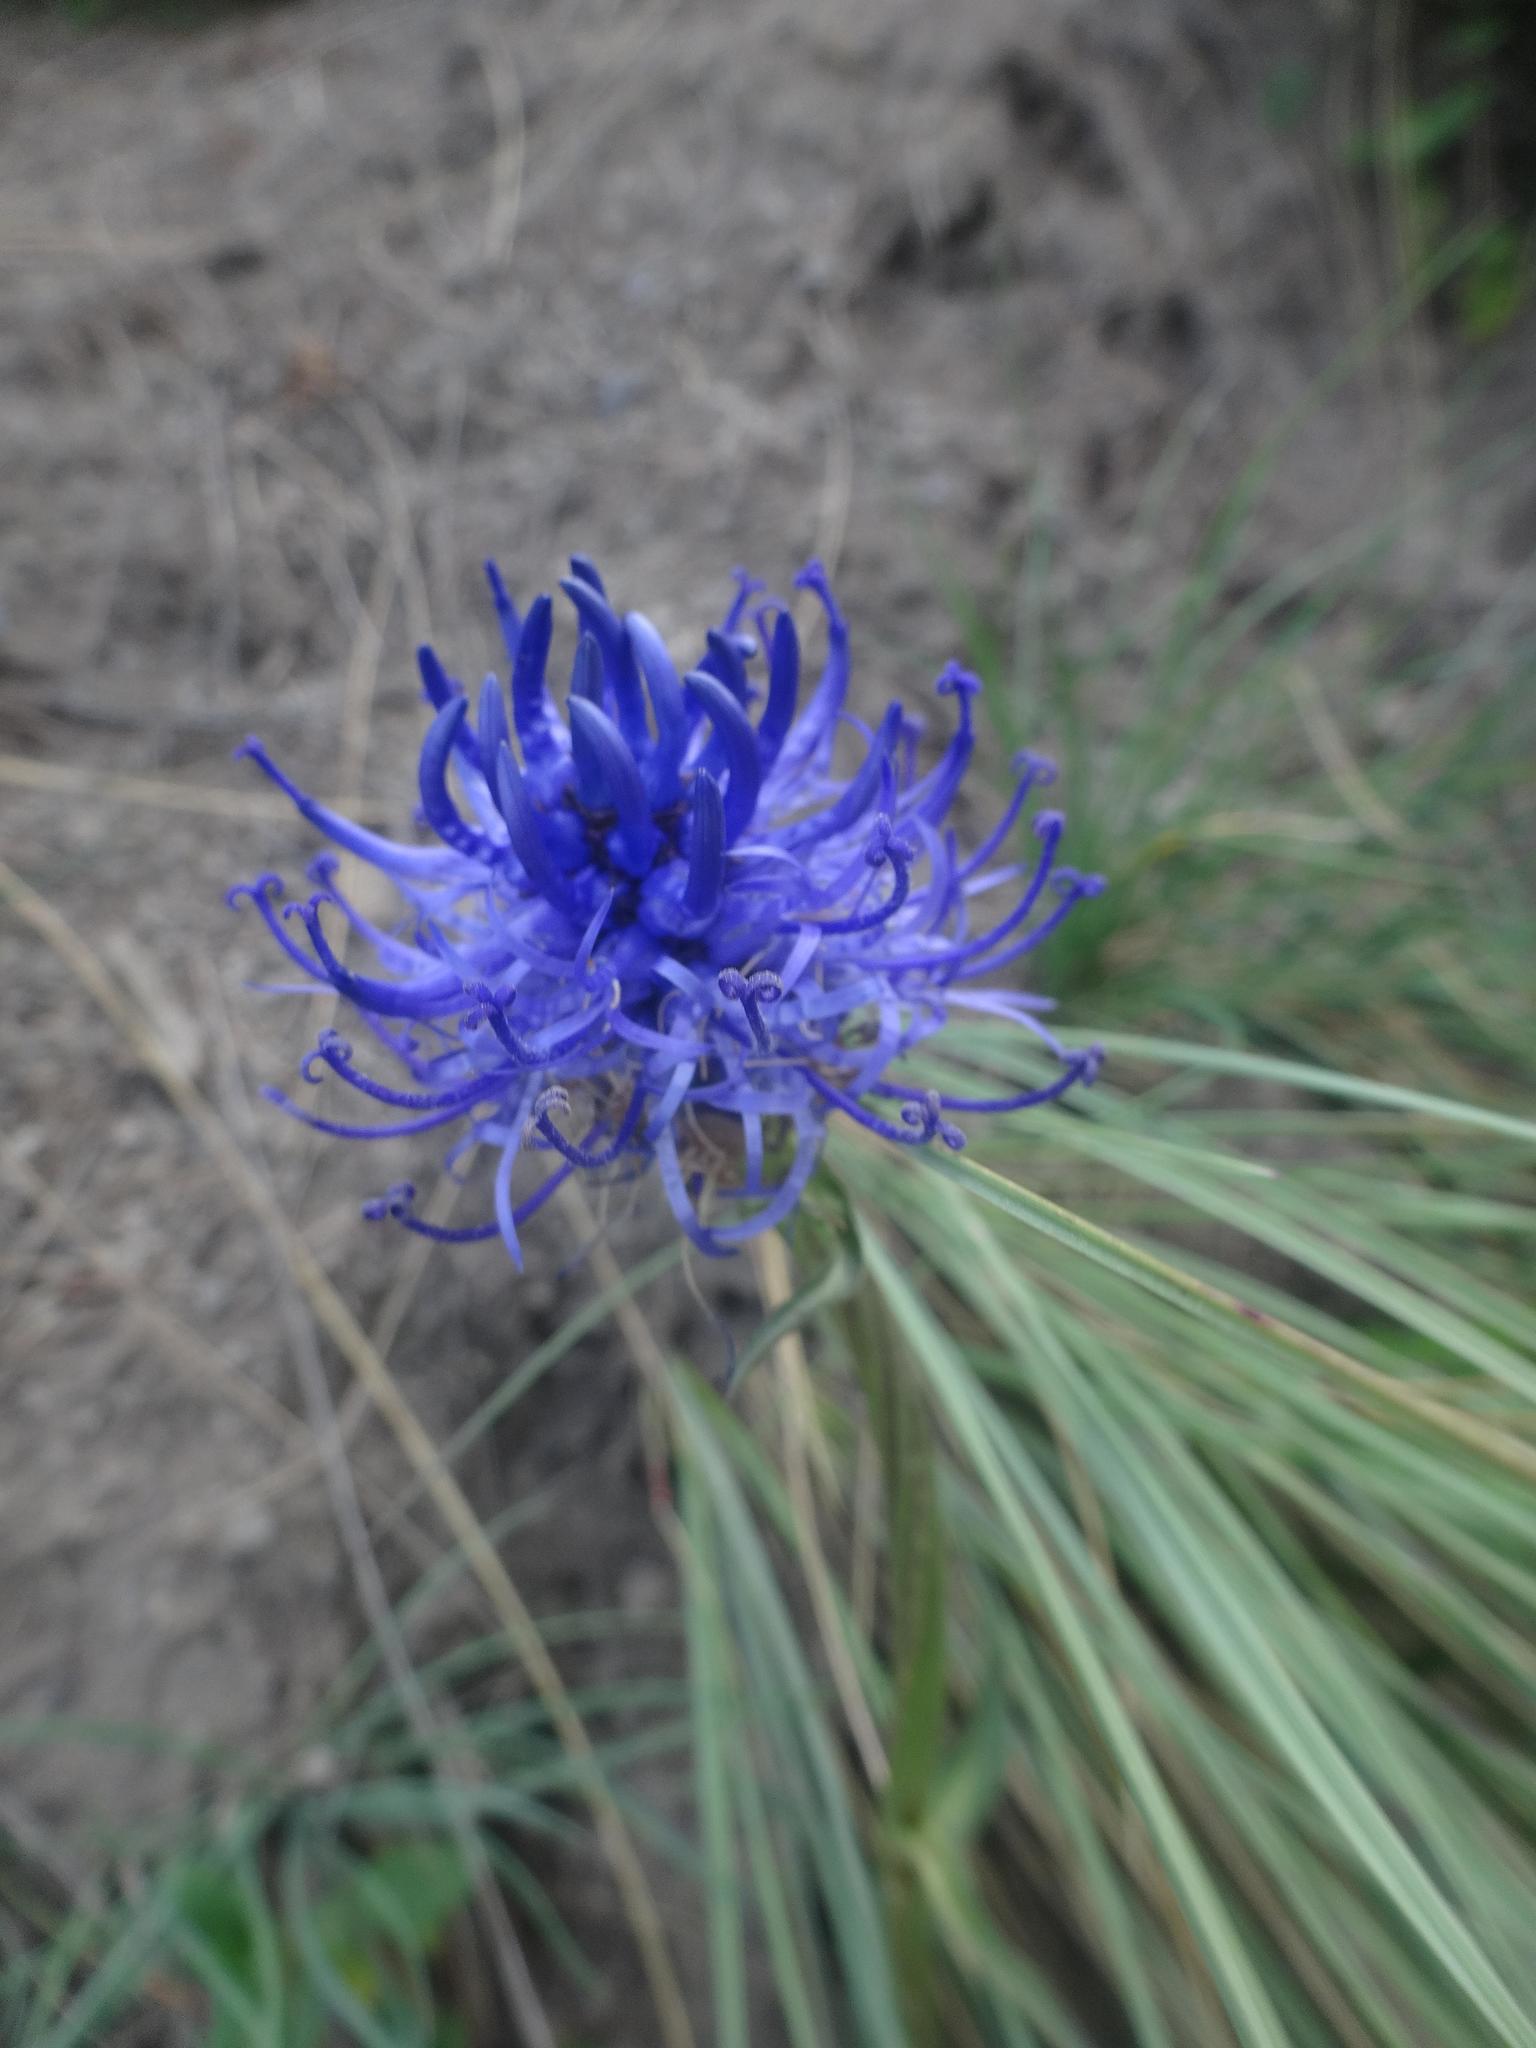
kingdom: Plantae
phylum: Tracheophyta
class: Magnoliopsida
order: Asterales
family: Campanulaceae
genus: Phyteuma
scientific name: Phyteuma orbiculare
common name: Round-headed rampion
